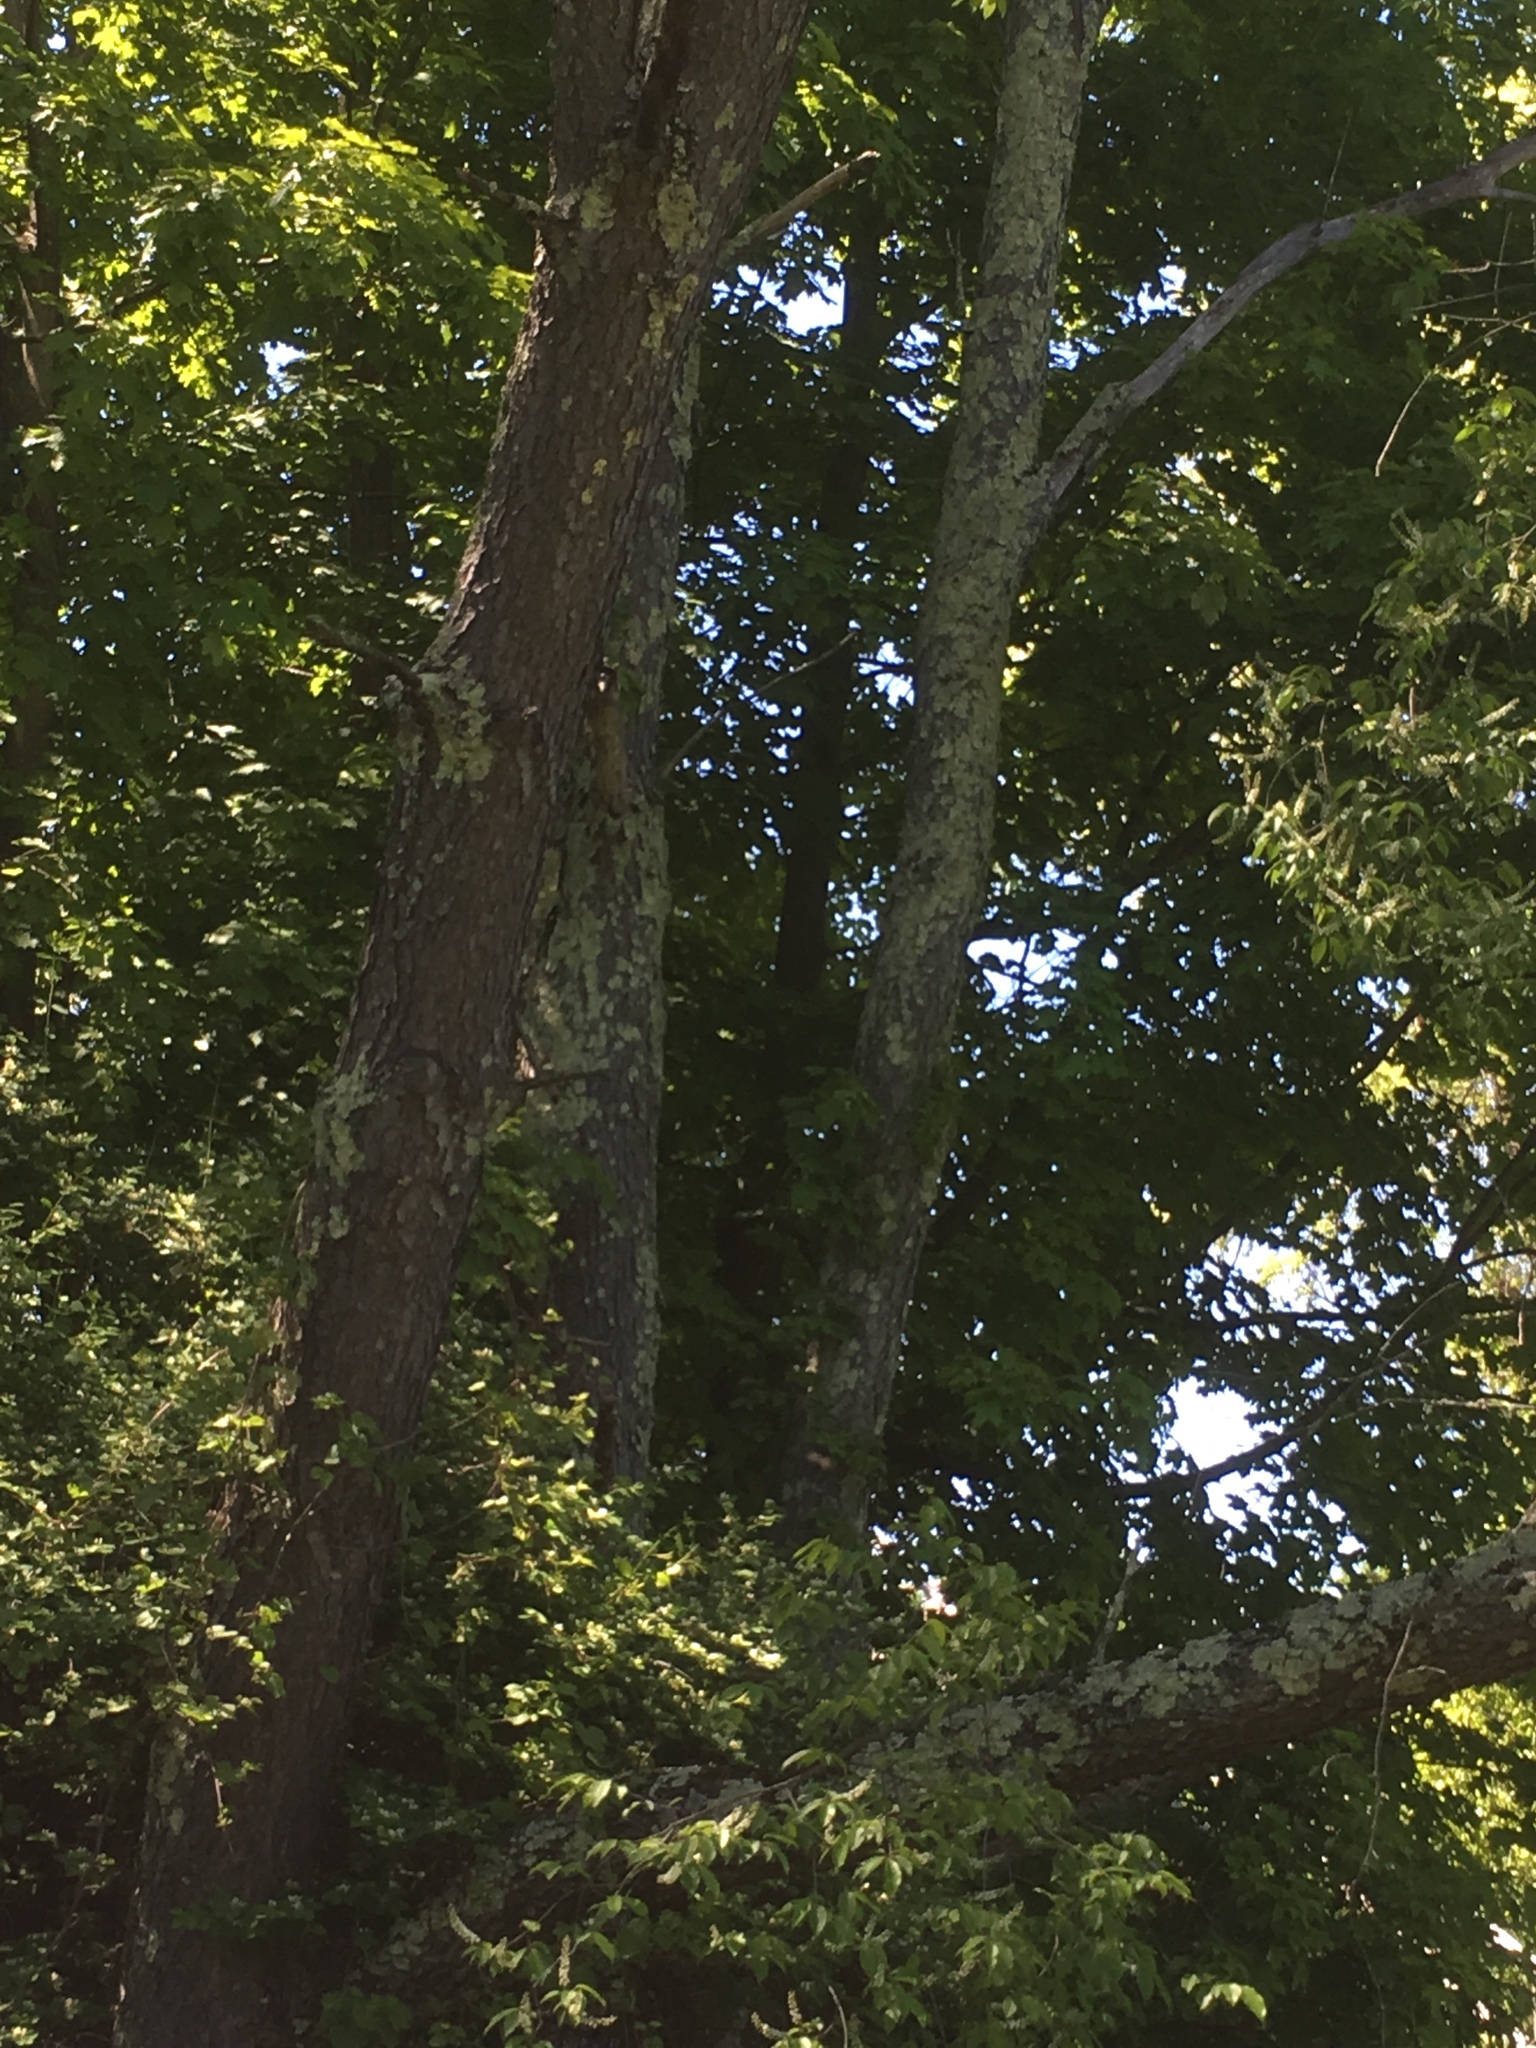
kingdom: Plantae
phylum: Tracheophyta
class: Magnoliopsida
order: Rosales
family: Rosaceae
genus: Prunus
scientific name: Prunus serotina
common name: Black cherry
